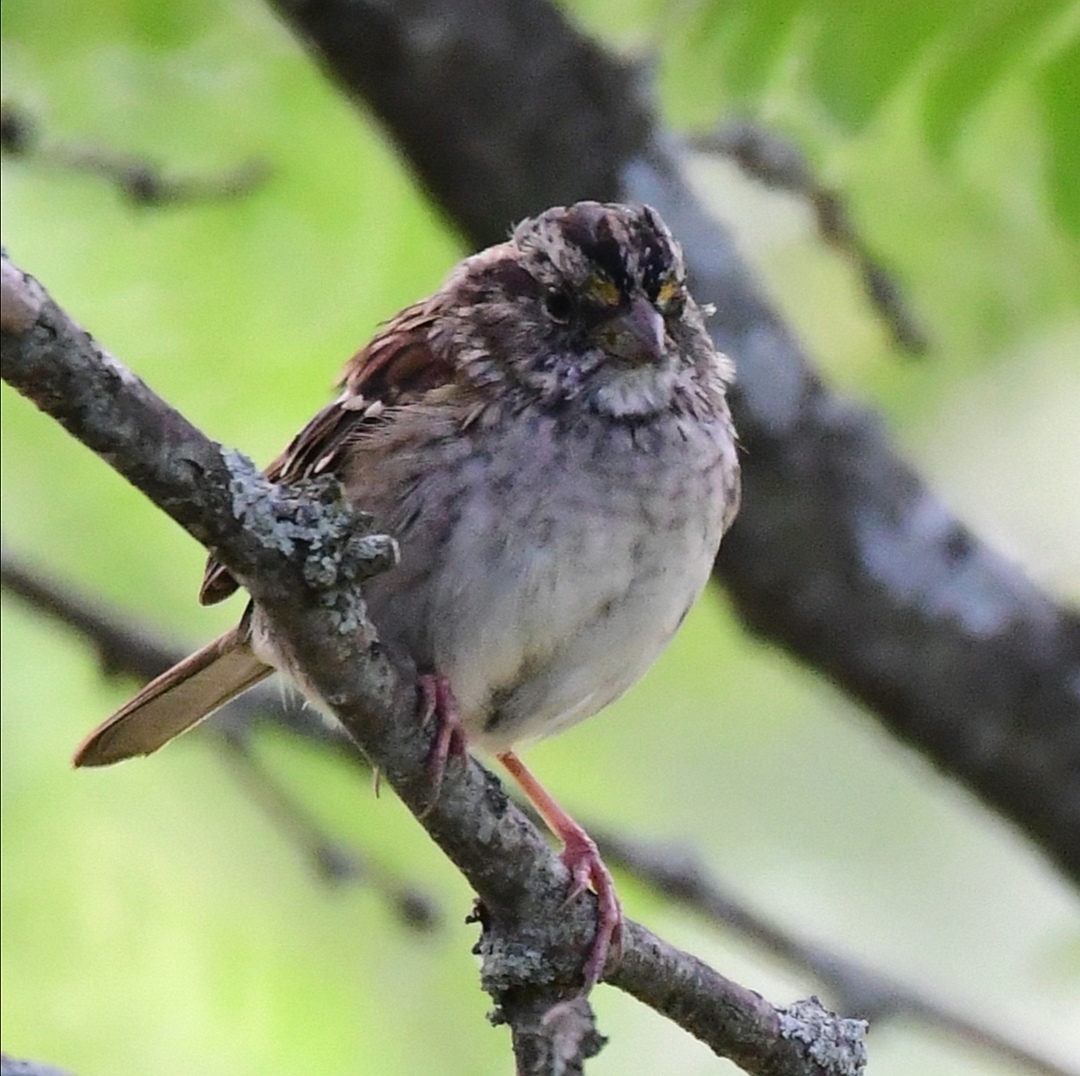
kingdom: Animalia
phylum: Chordata
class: Aves
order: Passeriformes
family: Passerellidae
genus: Zonotrichia
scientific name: Zonotrichia albicollis
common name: White-throated sparrow
